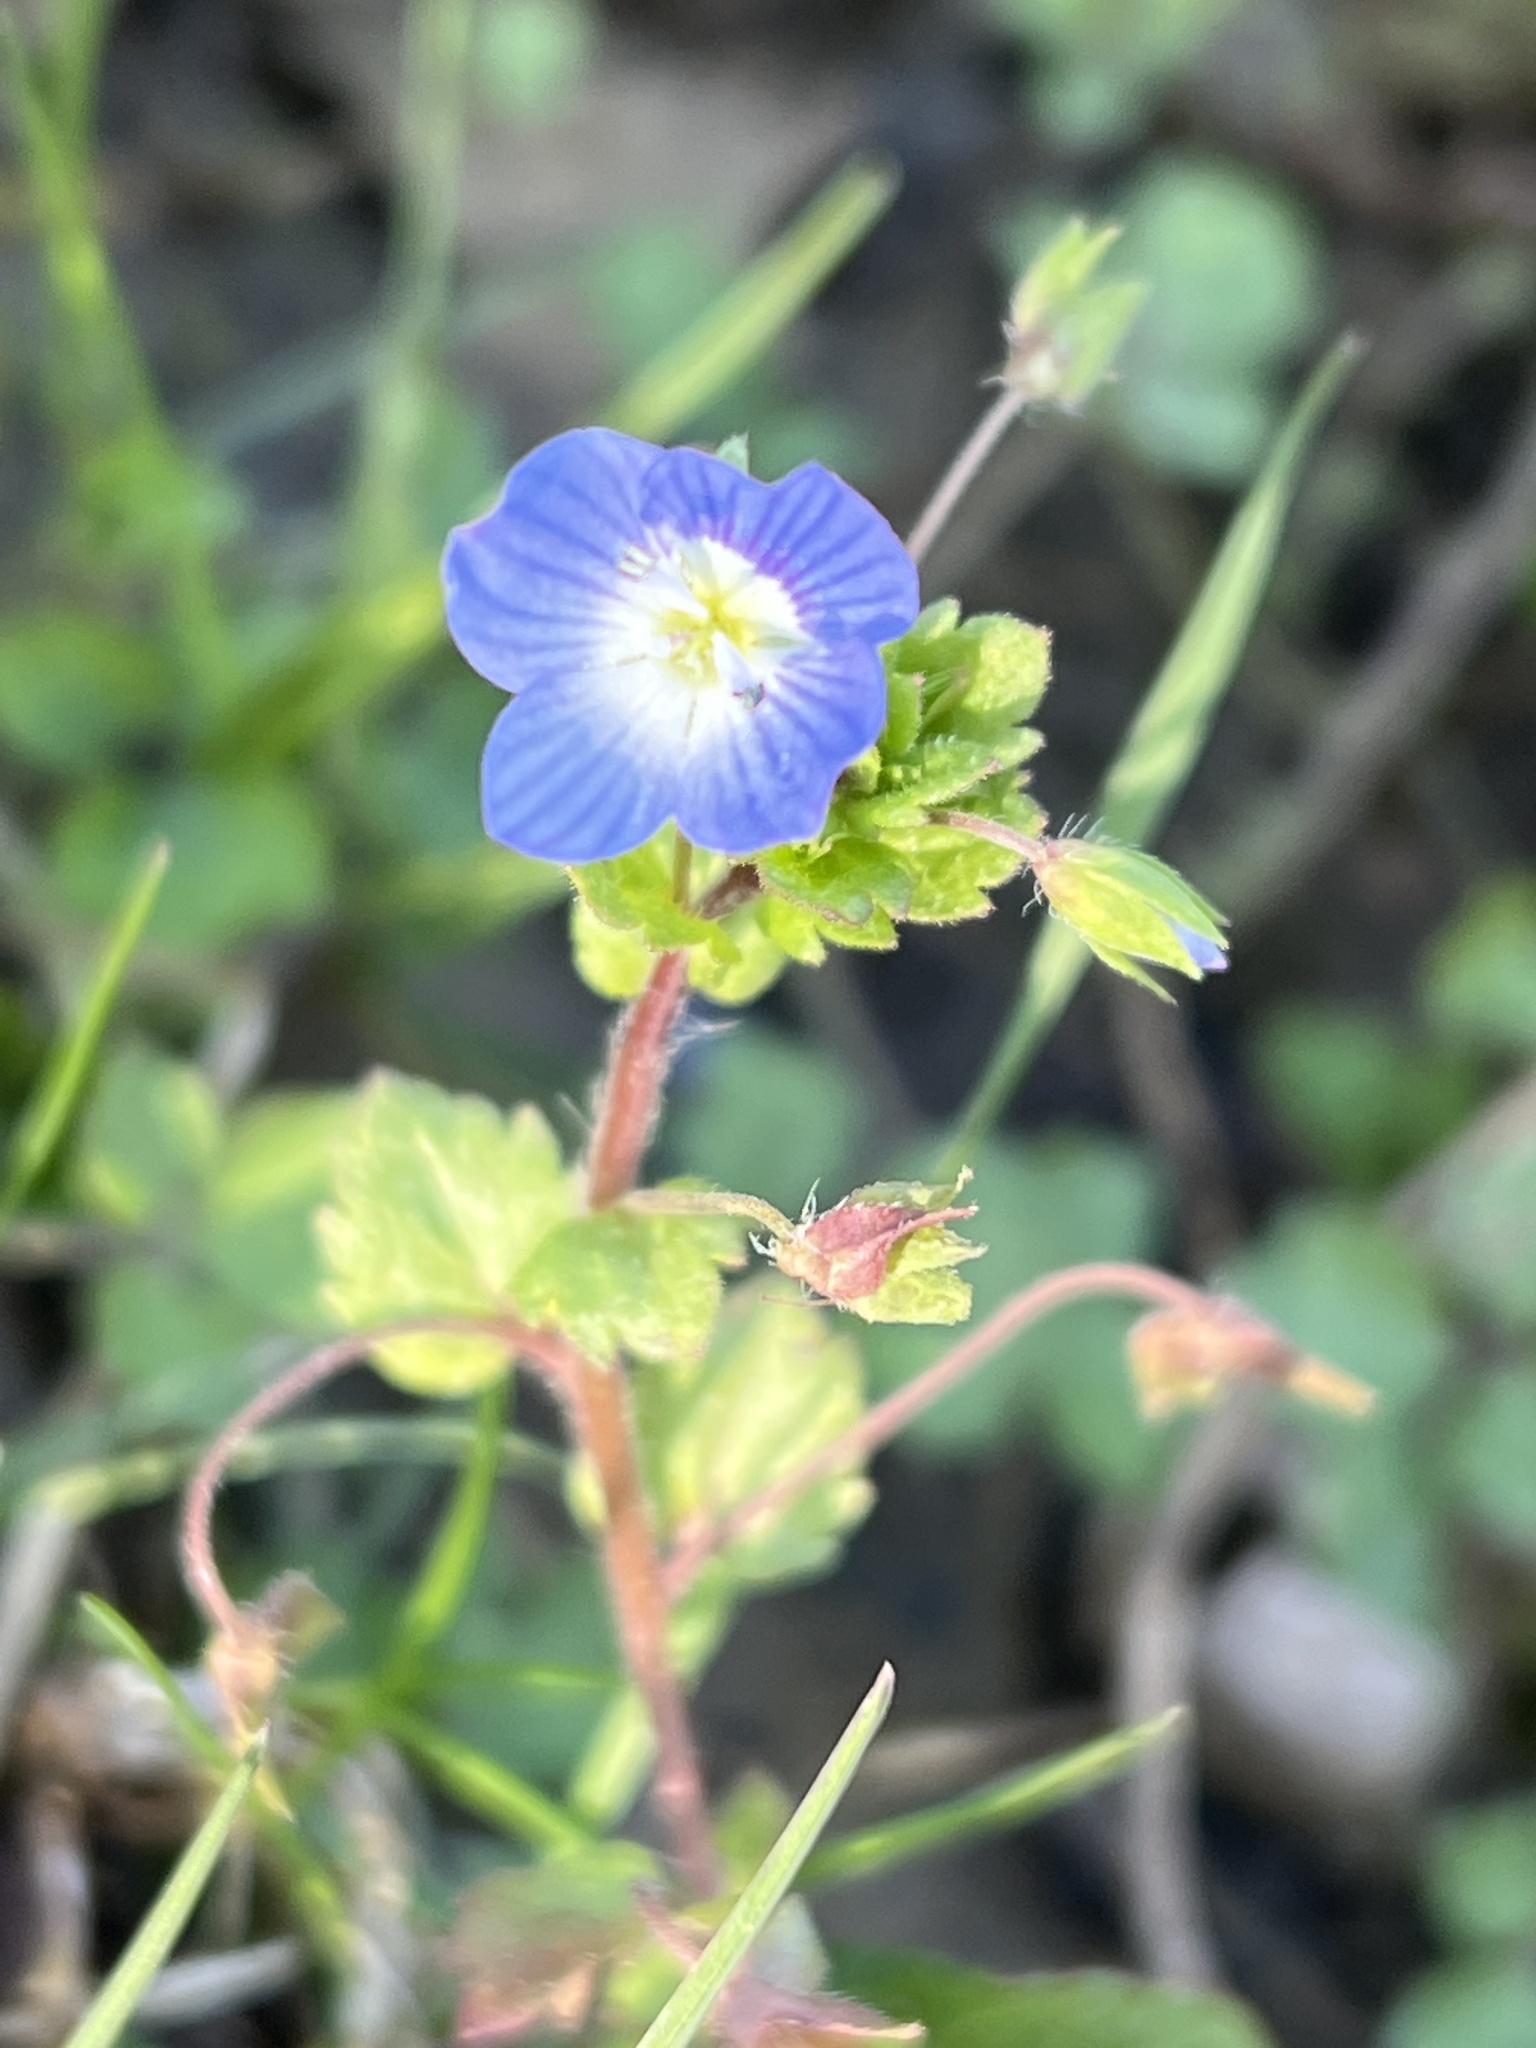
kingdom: Plantae
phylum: Tracheophyta
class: Magnoliopsida
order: Lamiales
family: Plantaginaceae
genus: Veronica
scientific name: Veronica persica
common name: Common field-speedwell
